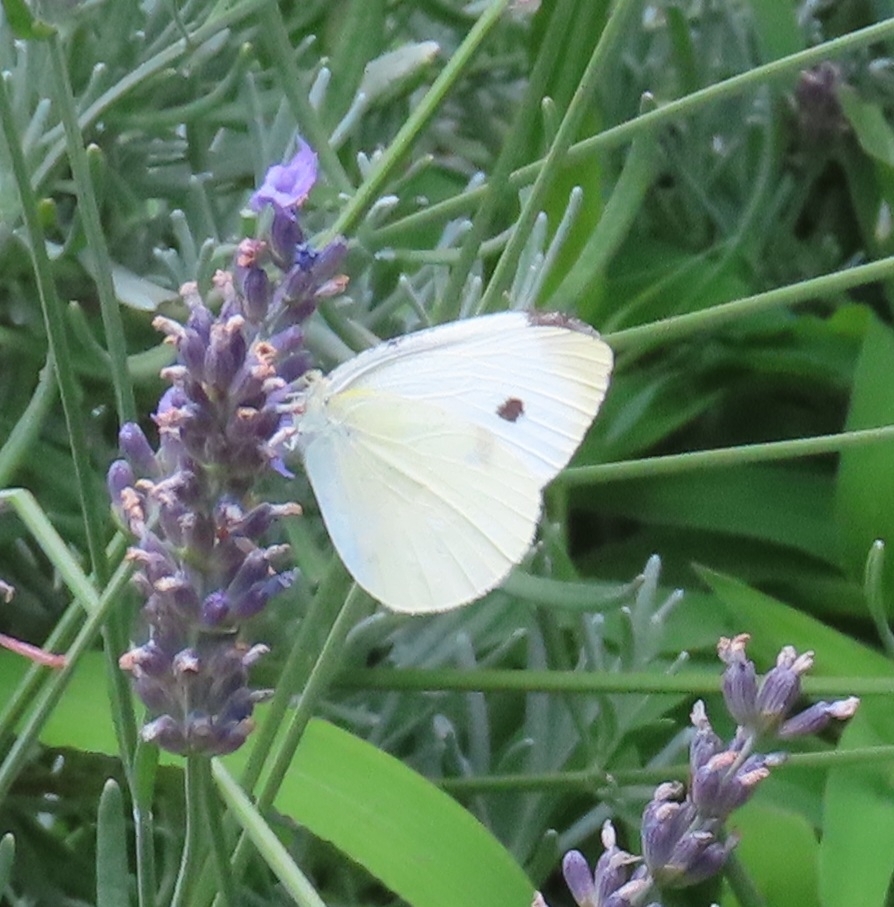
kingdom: Animalia
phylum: Arthropoda
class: Insecta
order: Lepidoptera
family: Pieridae
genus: Pieris
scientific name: Pieris rapae
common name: Small white
